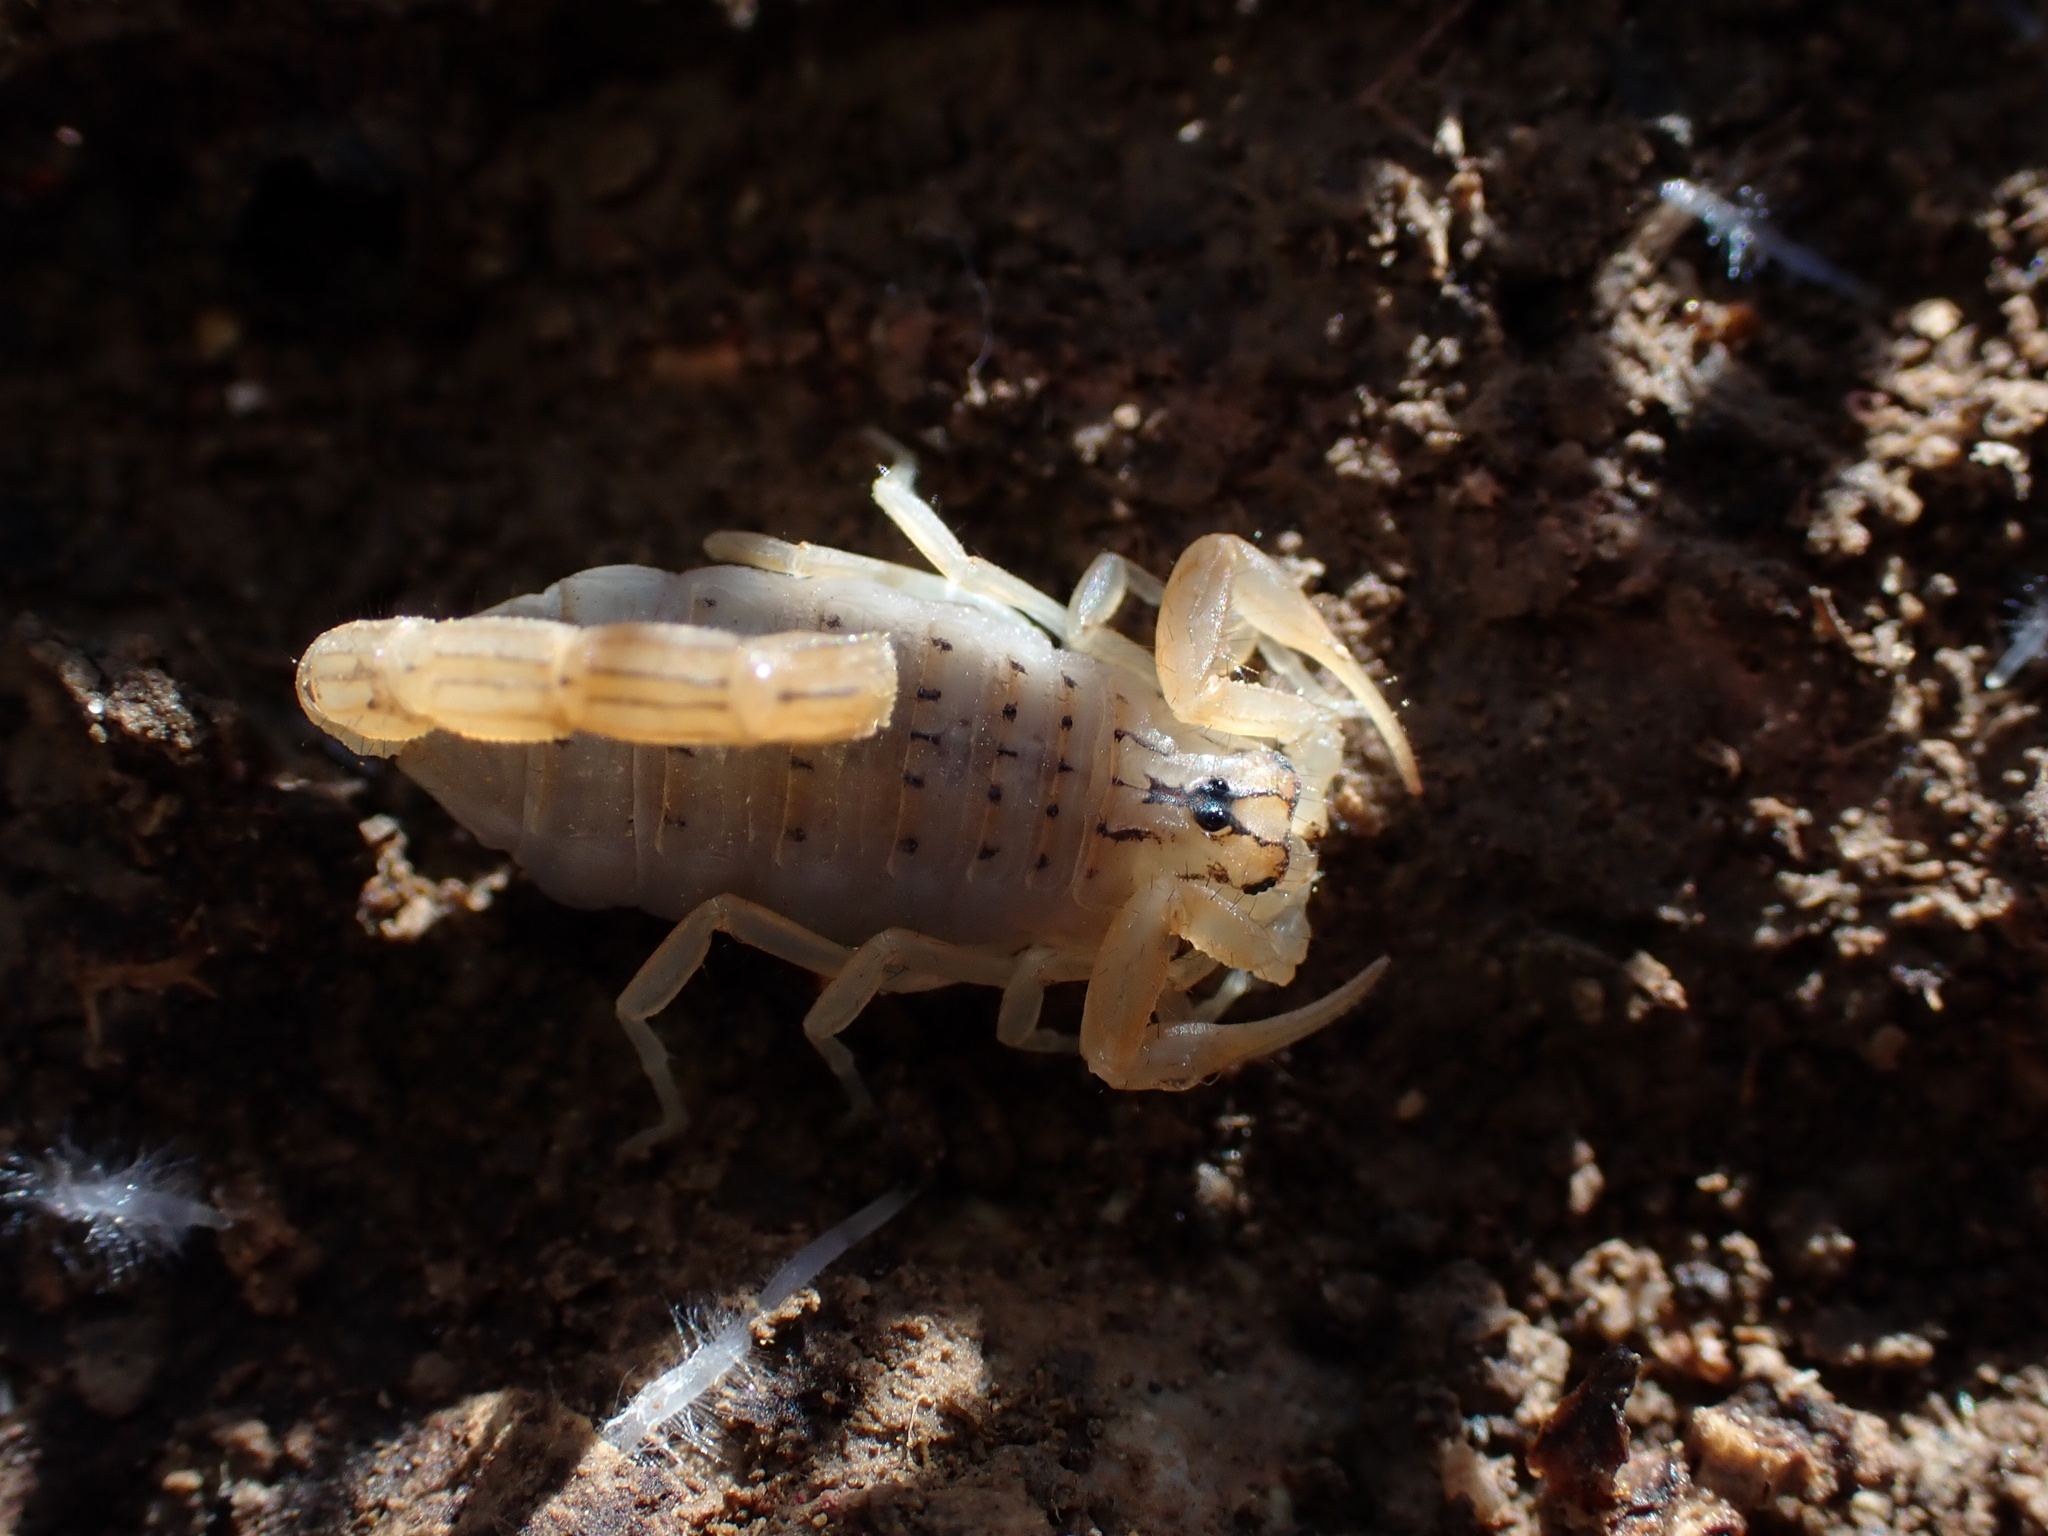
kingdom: Animalia
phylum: Arthropoda
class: Arachnida
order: Scorpiones
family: Buthidae
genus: Mesobuthus
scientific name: Mesobuthus phillipsi
